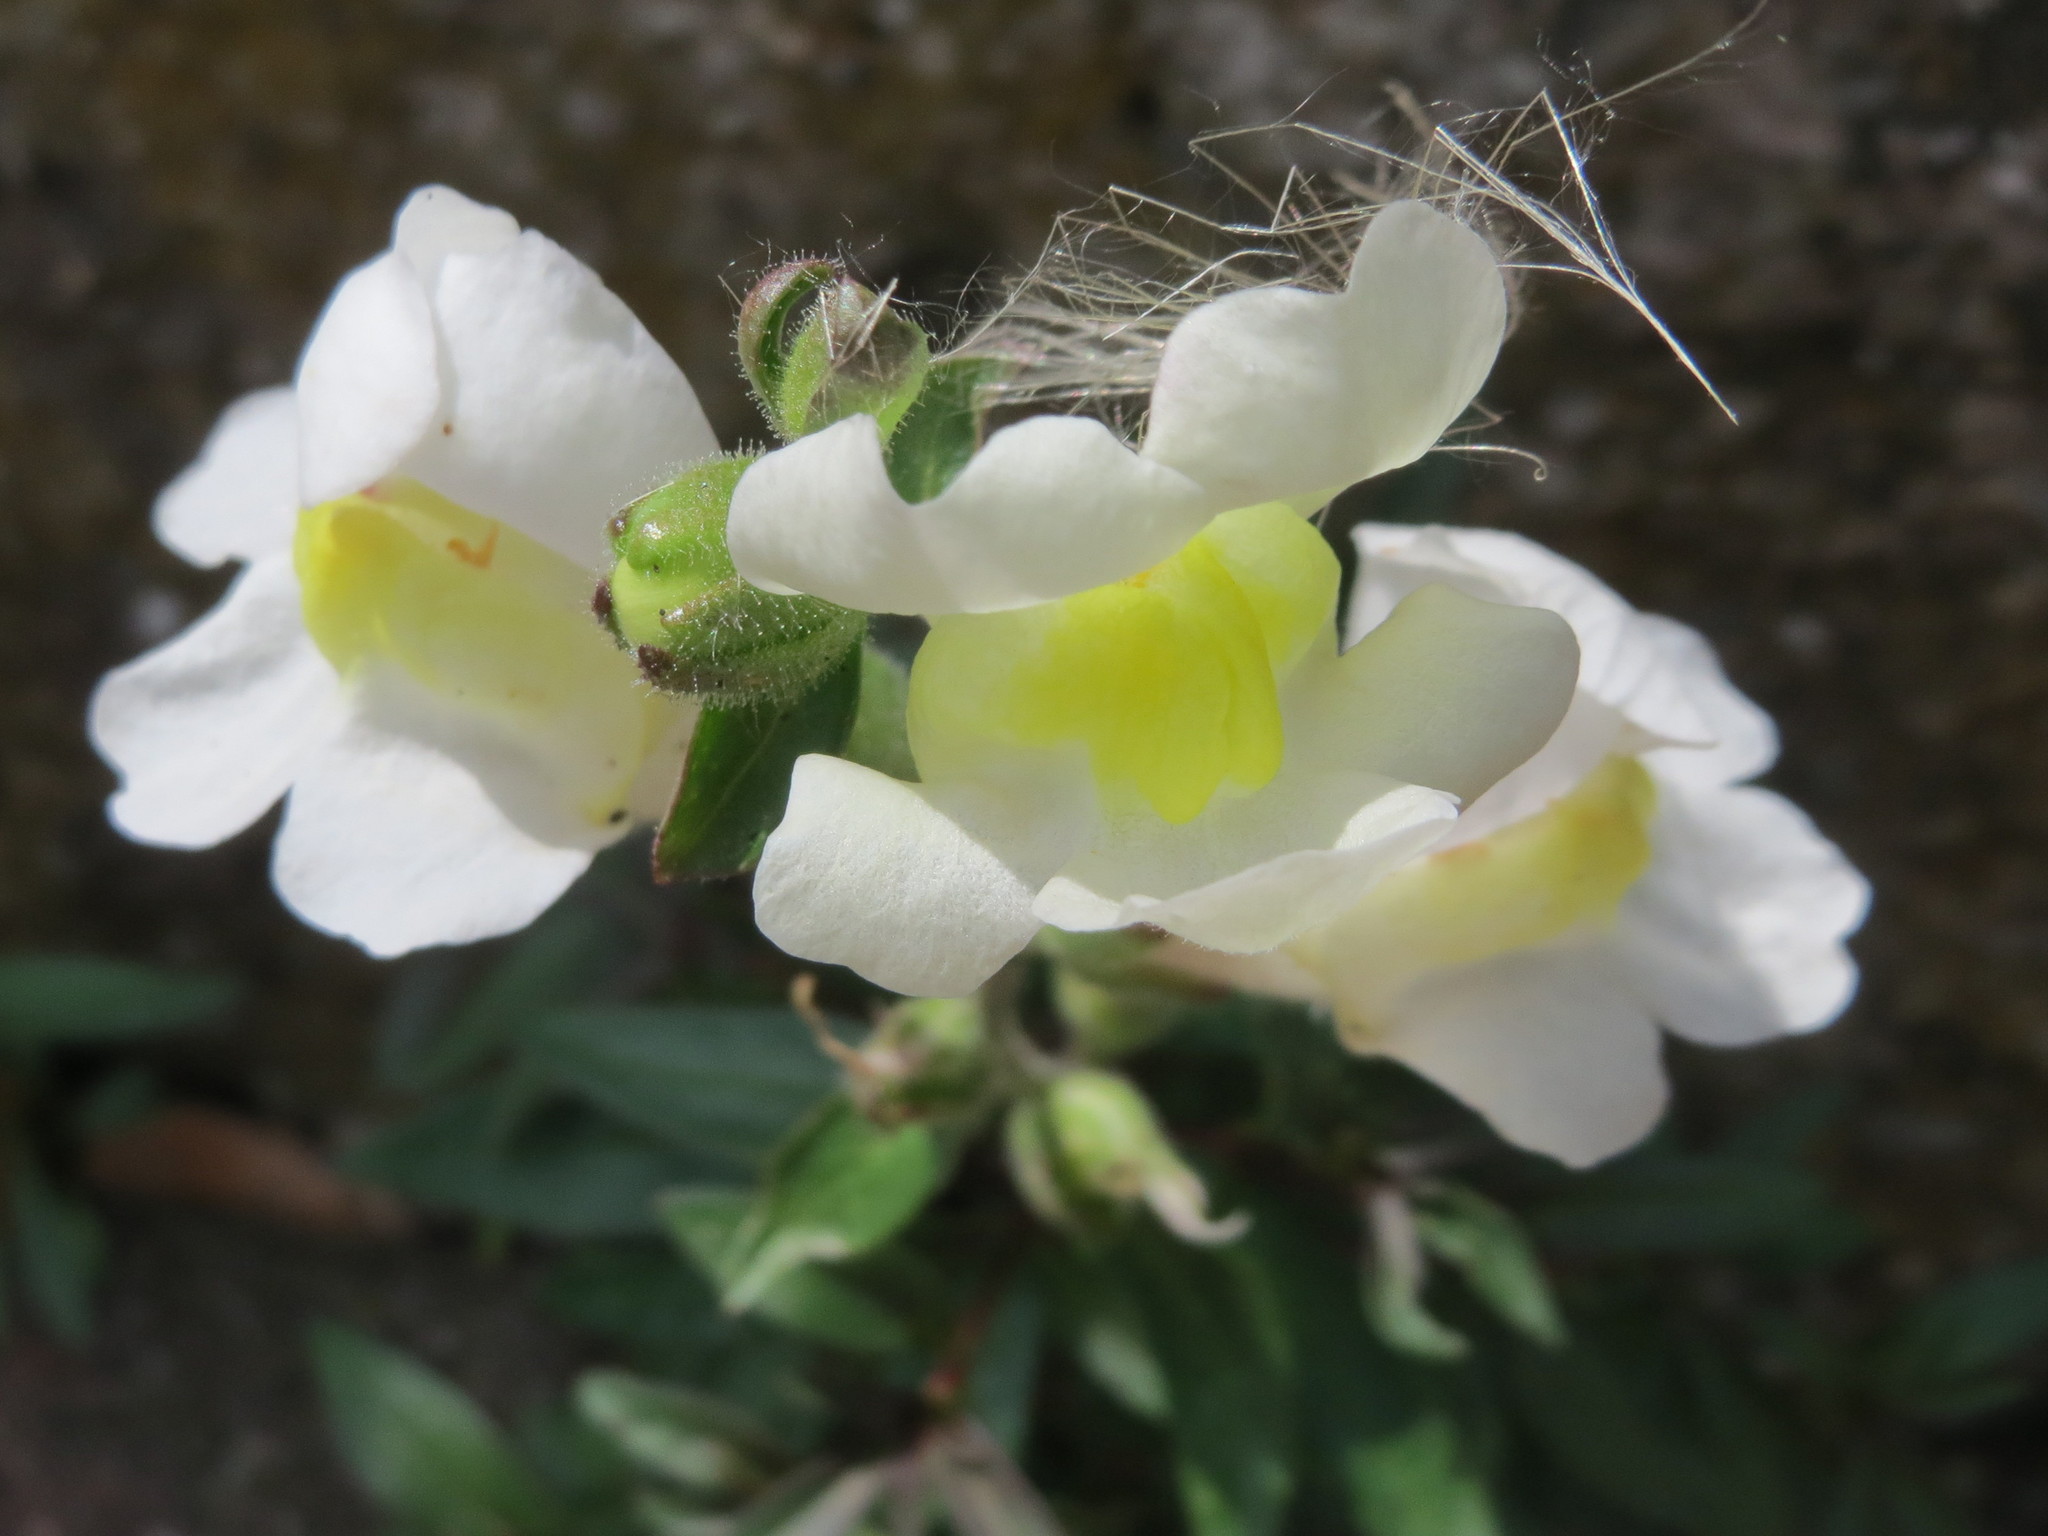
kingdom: Plantae
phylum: Tracheophyta
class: Magnoliopsida
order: Lamiales
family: Plantaginaceae
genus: Antirrhinum
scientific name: Antirrhinum majus
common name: Snapdragon
